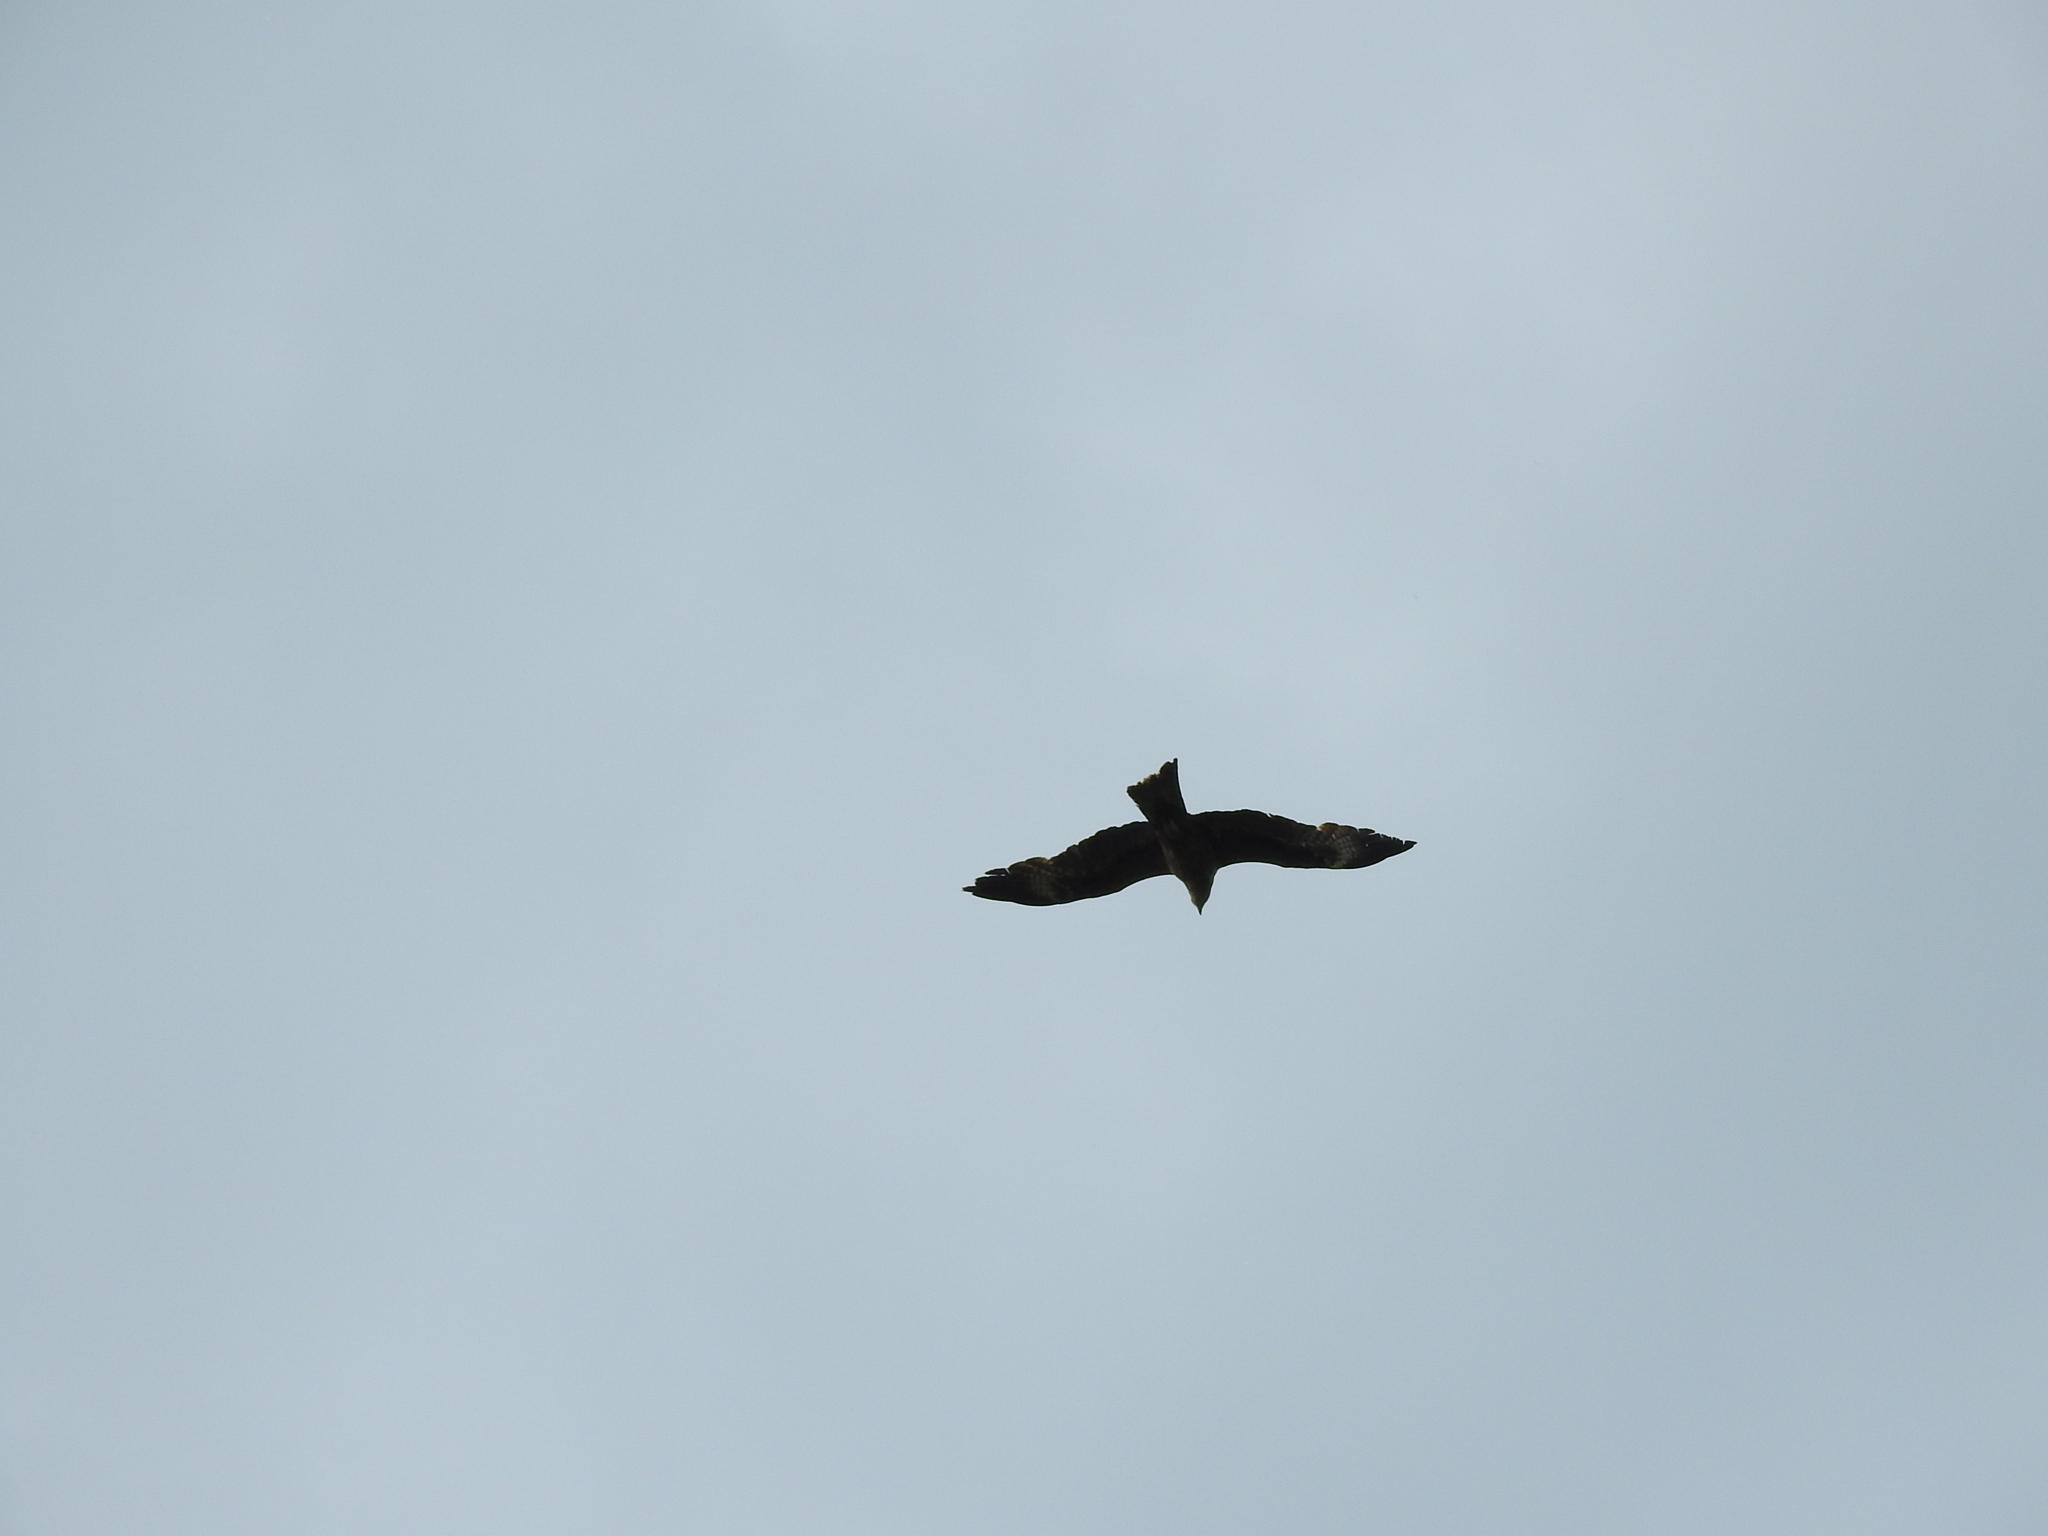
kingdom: Animalia
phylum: Chordata
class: Aves
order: Accipitriformes
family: Accipitridae
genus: Milvus
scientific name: Milvus migrans
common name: Black kite
